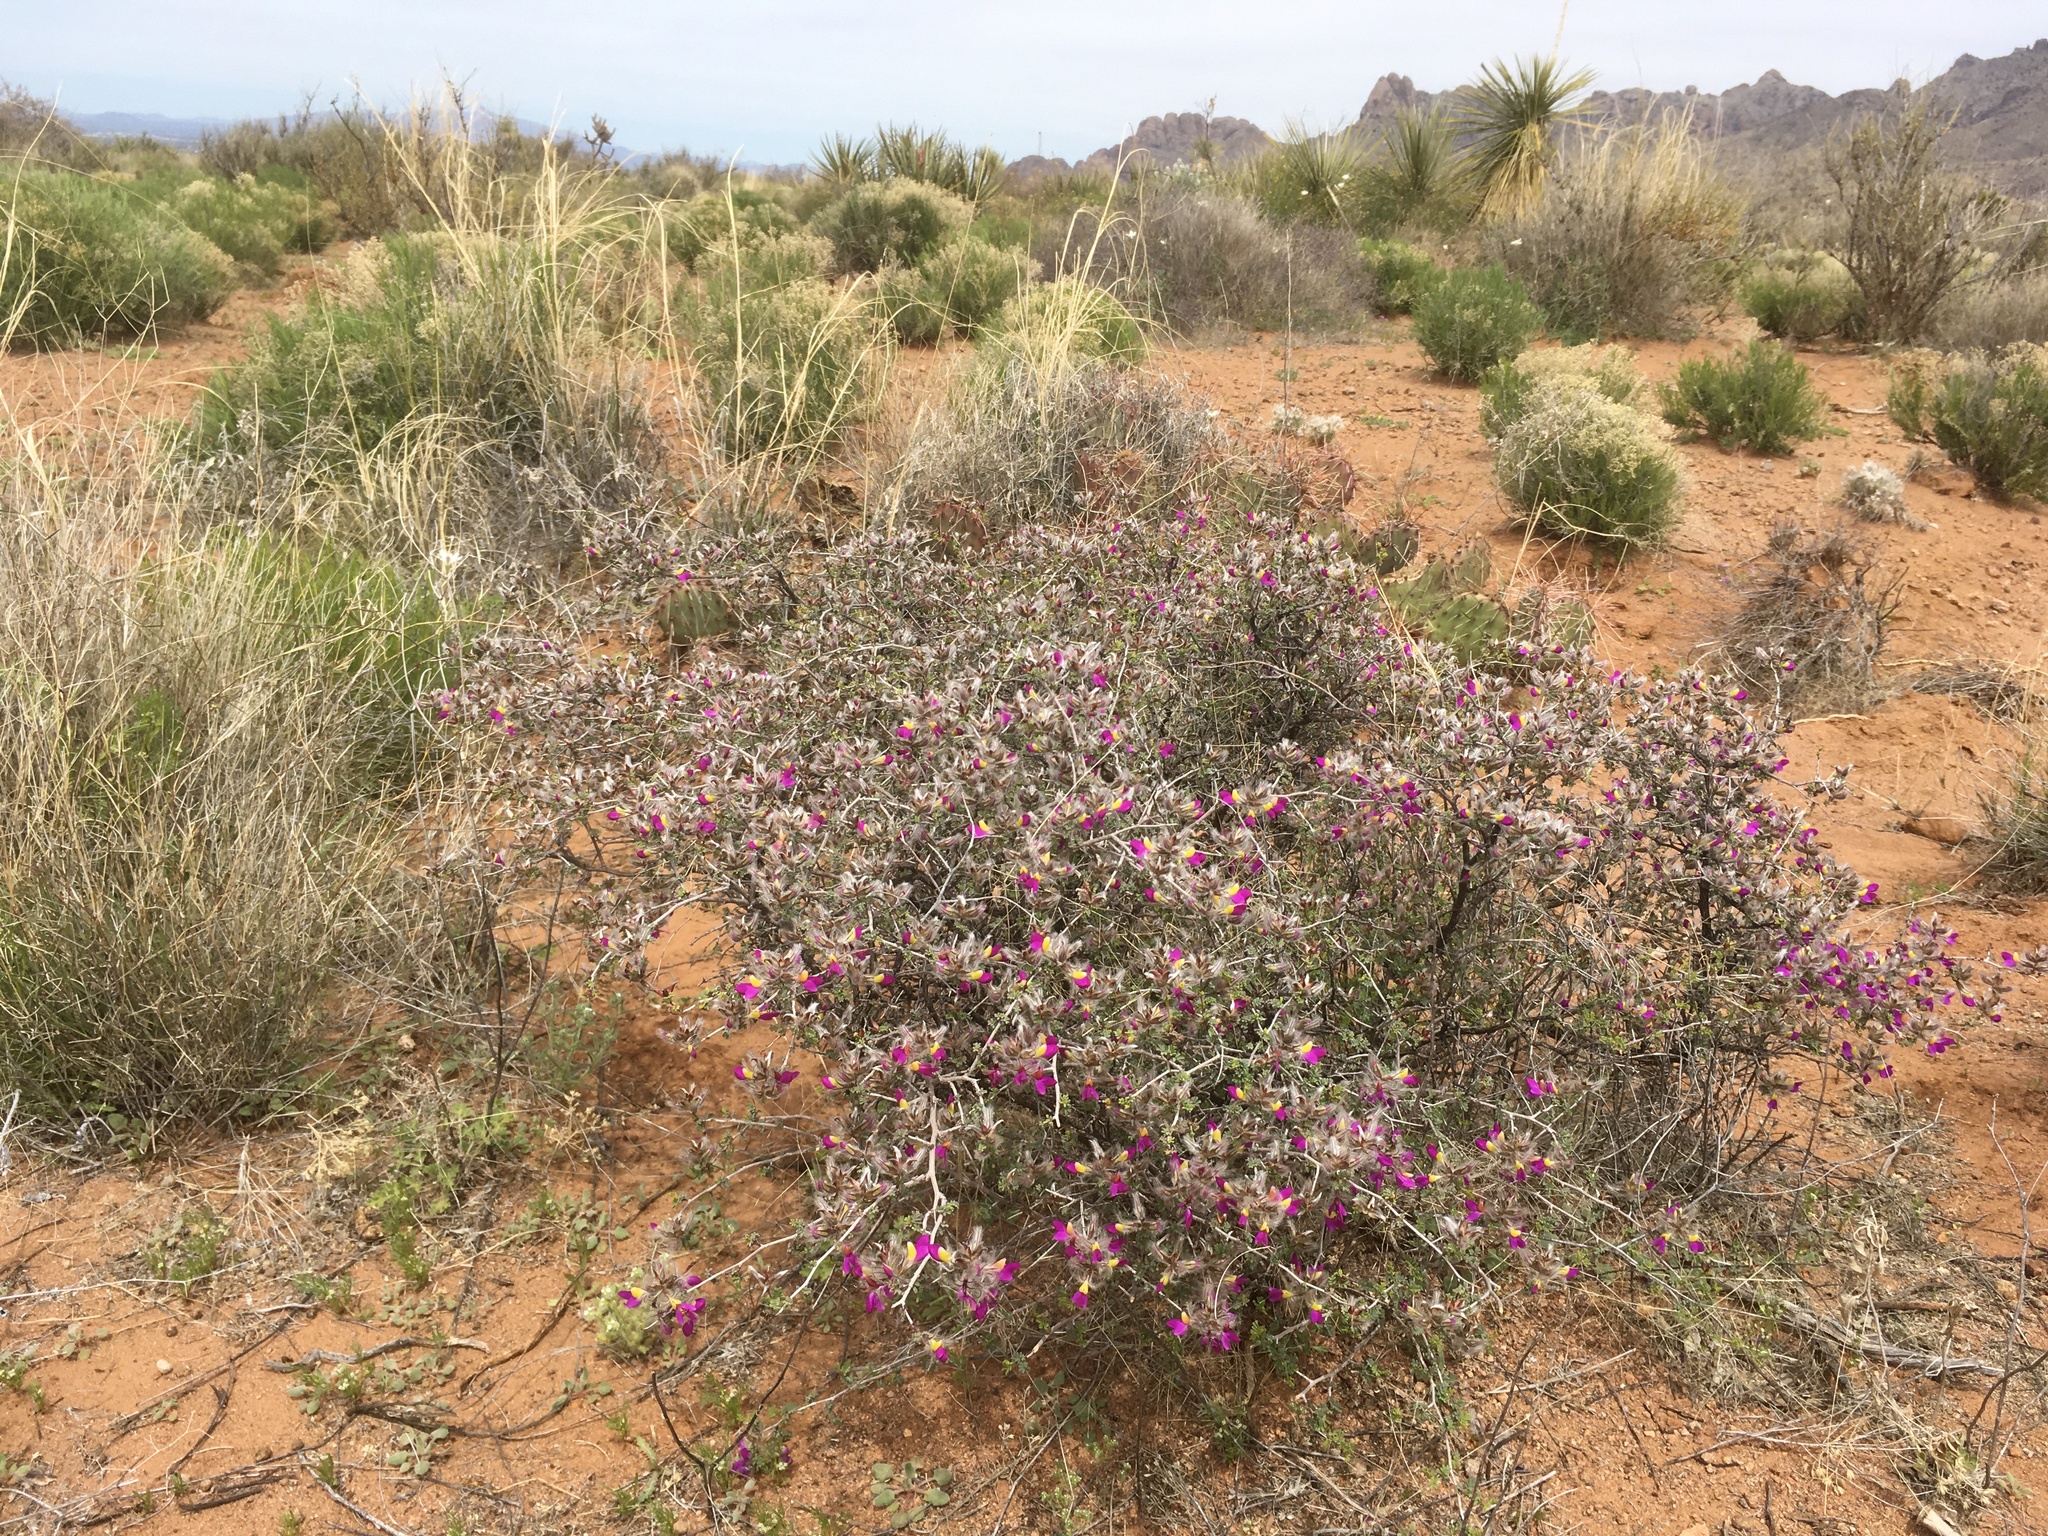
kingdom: Plantae
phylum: Tracheophyta
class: Magnoliopsida
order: Fabales
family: Fabaceae
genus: Dalea
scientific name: Dalea formosa
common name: Feather-plume dalea
